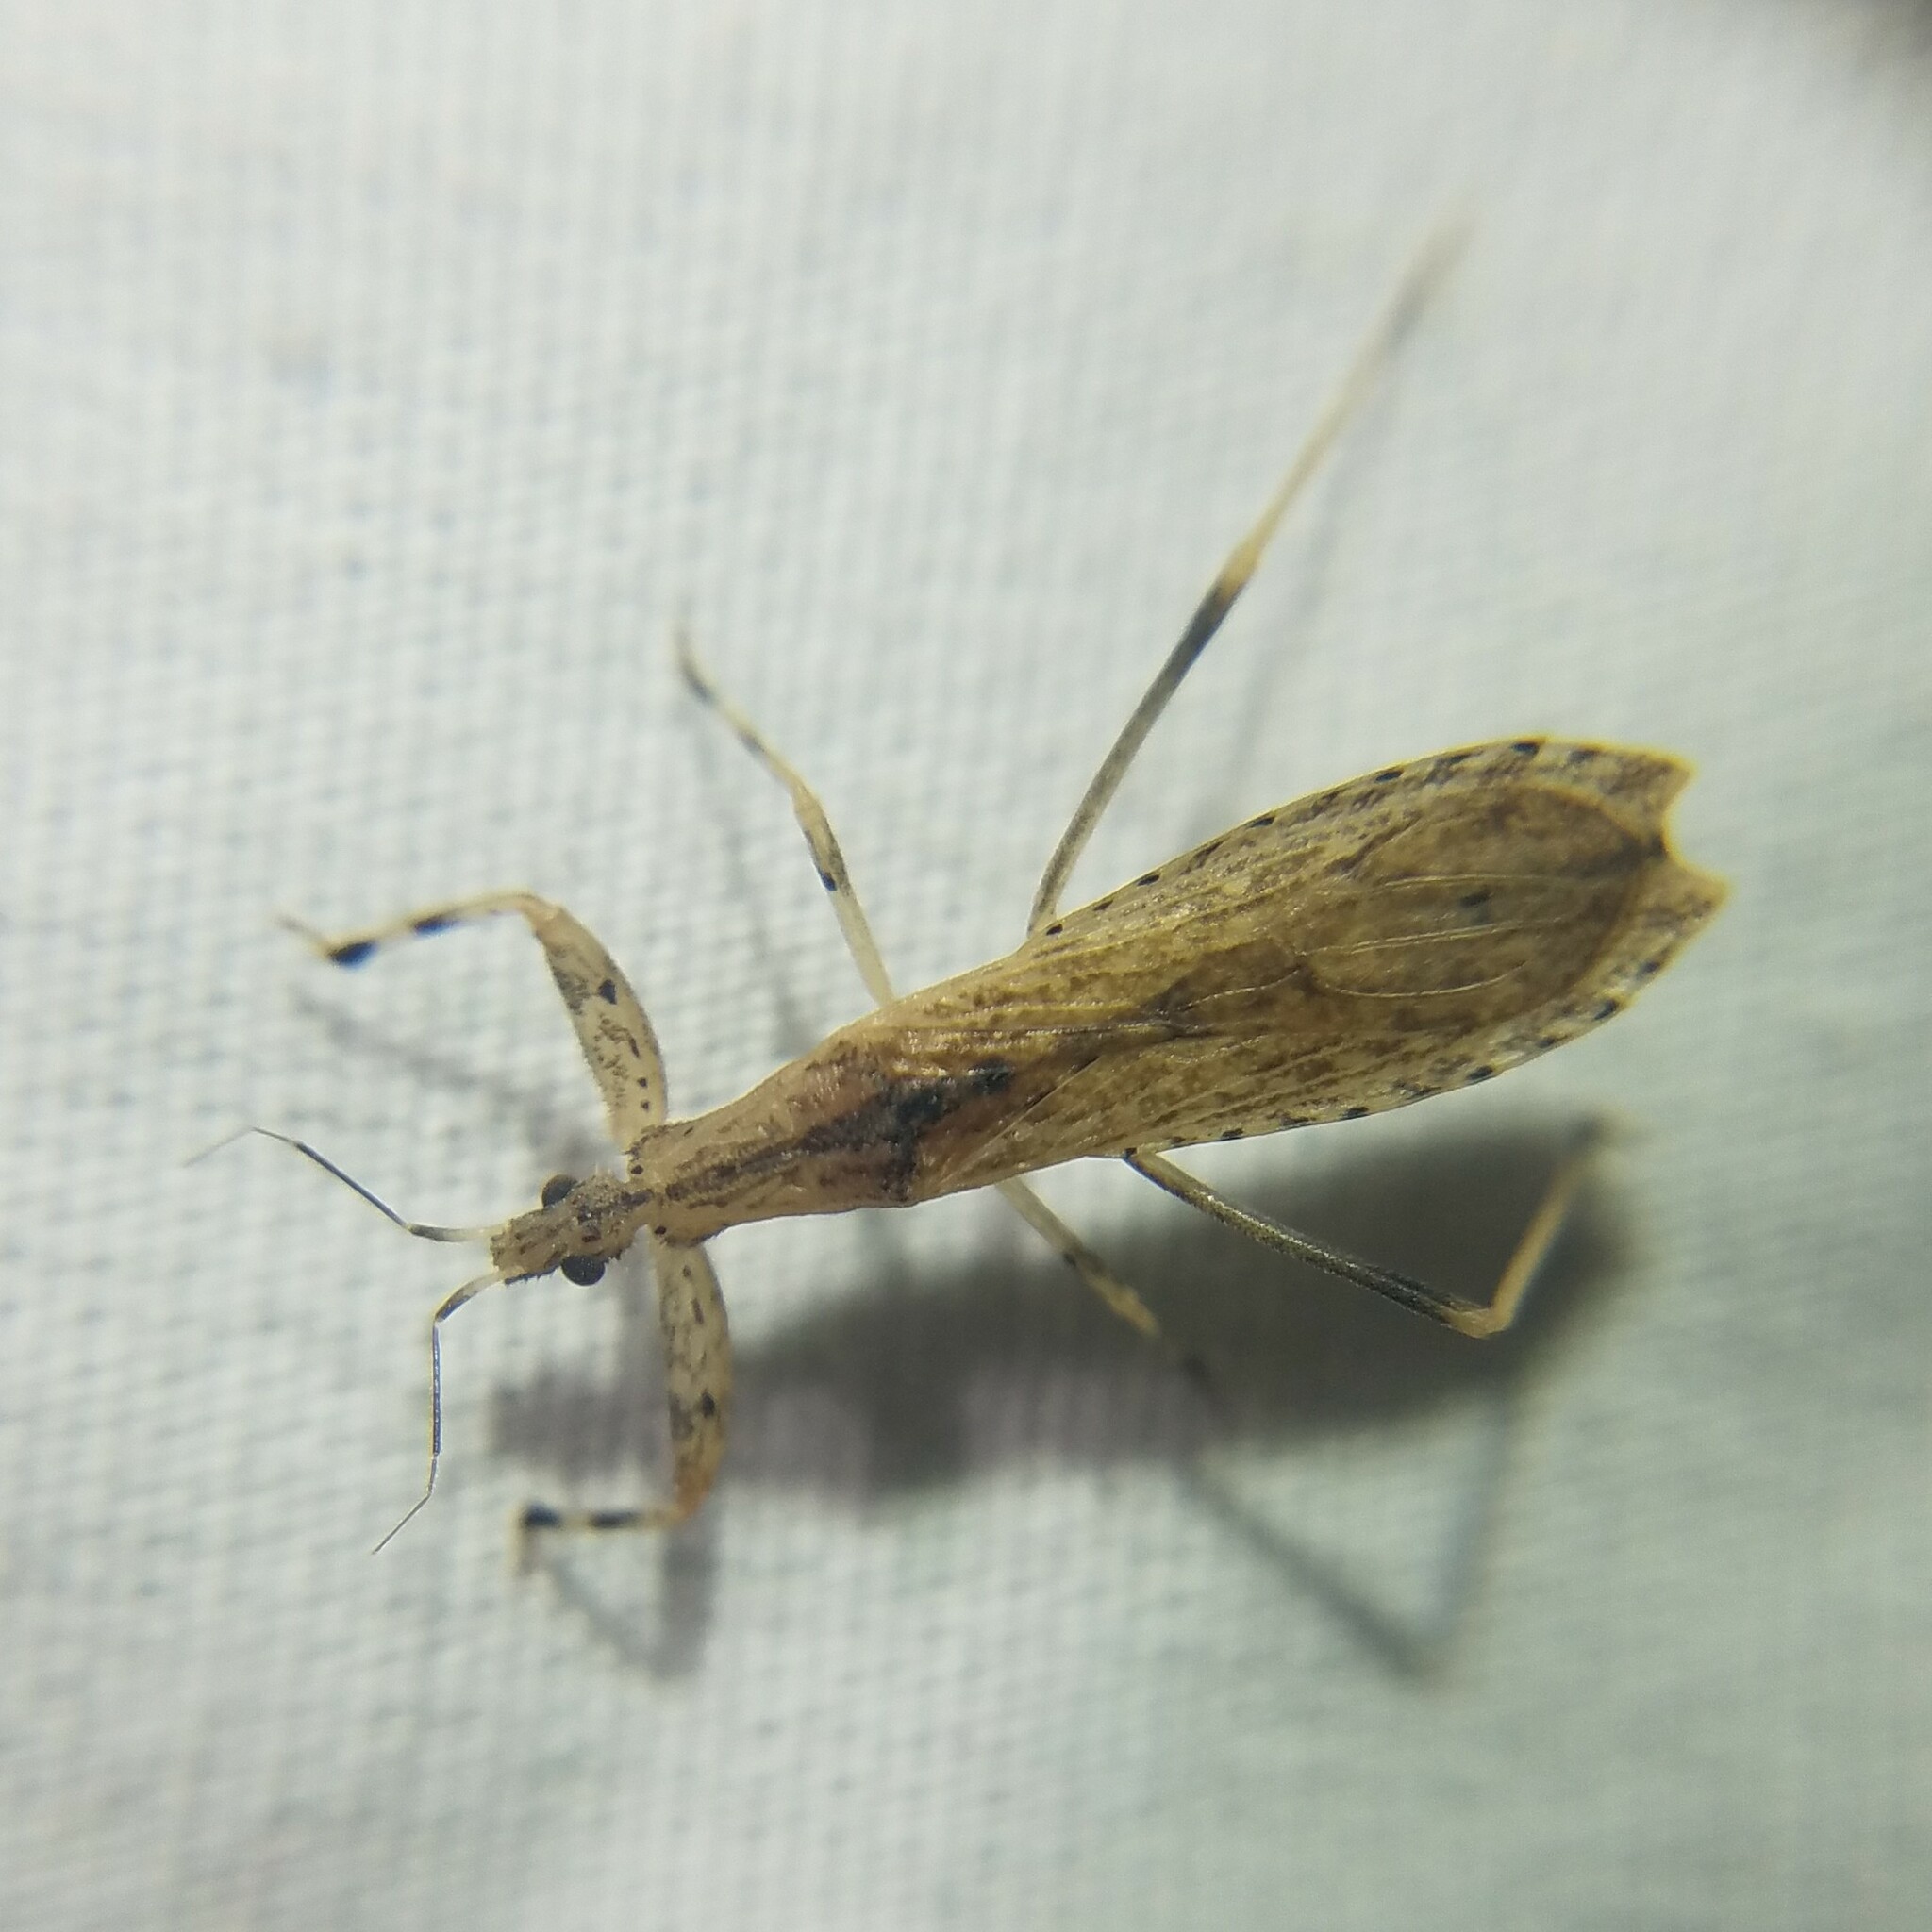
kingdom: Animalia
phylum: Arthropoda
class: Insecta
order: Hemiptera
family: Reduviidae
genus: Ctenotrachelus
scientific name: Ctenotrachelus shermani
